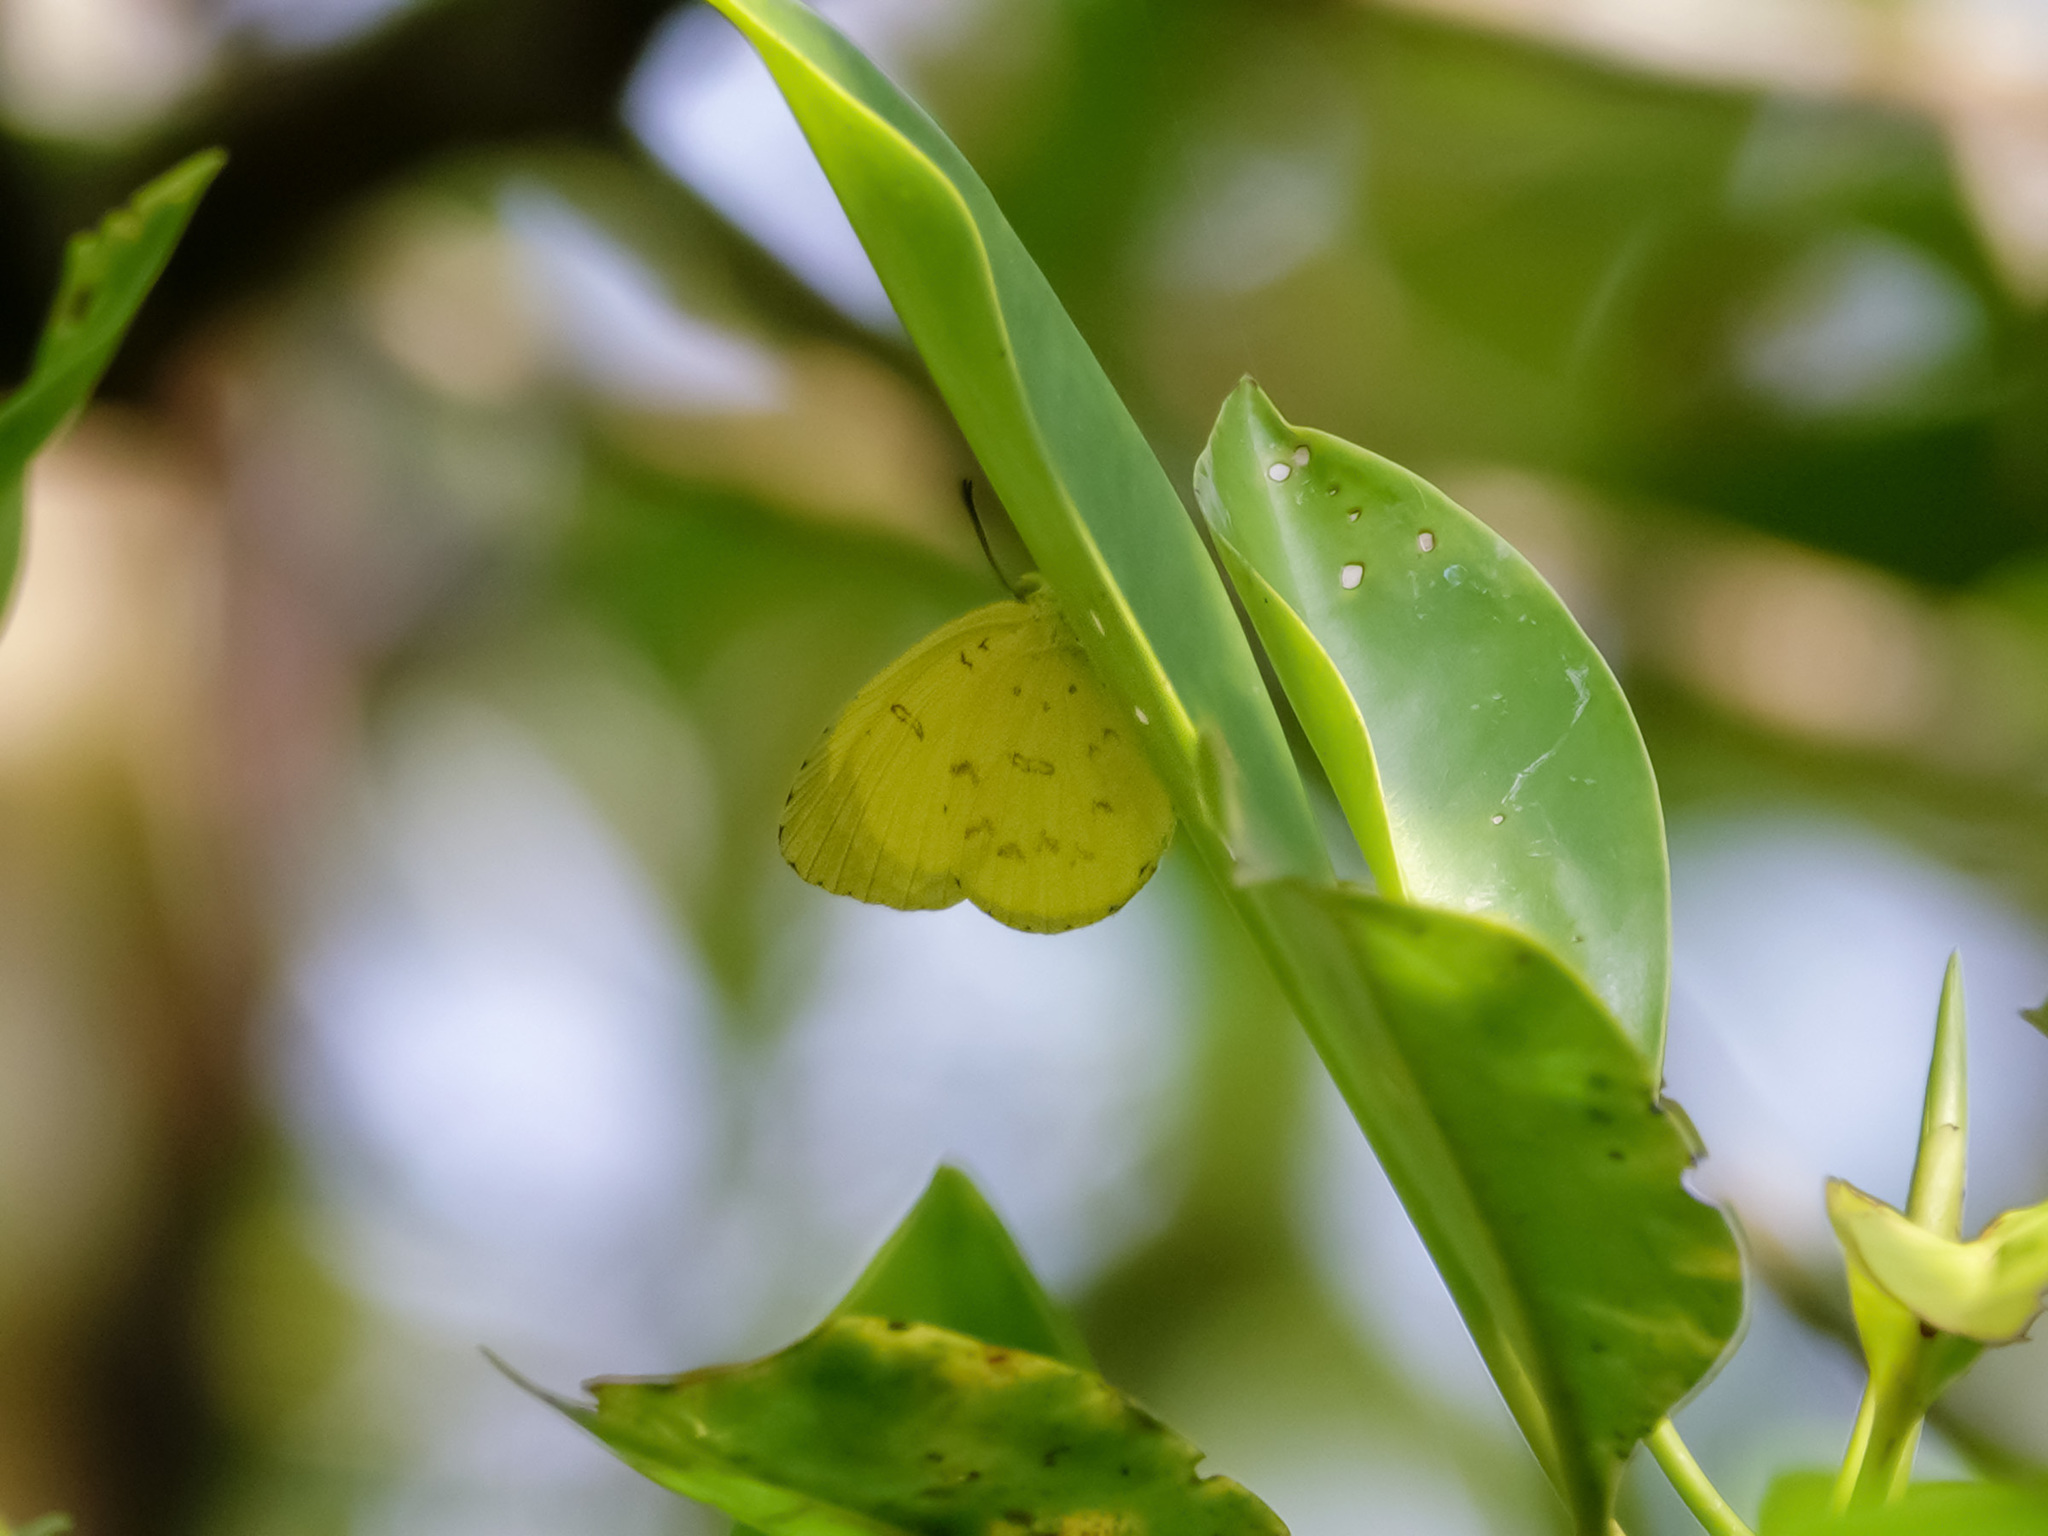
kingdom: Animalia
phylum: Arthropoda
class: Insecta
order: Lepidoptera
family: Pieridae
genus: Eurema
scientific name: Eurema blanda
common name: Three-spot grass yellow
